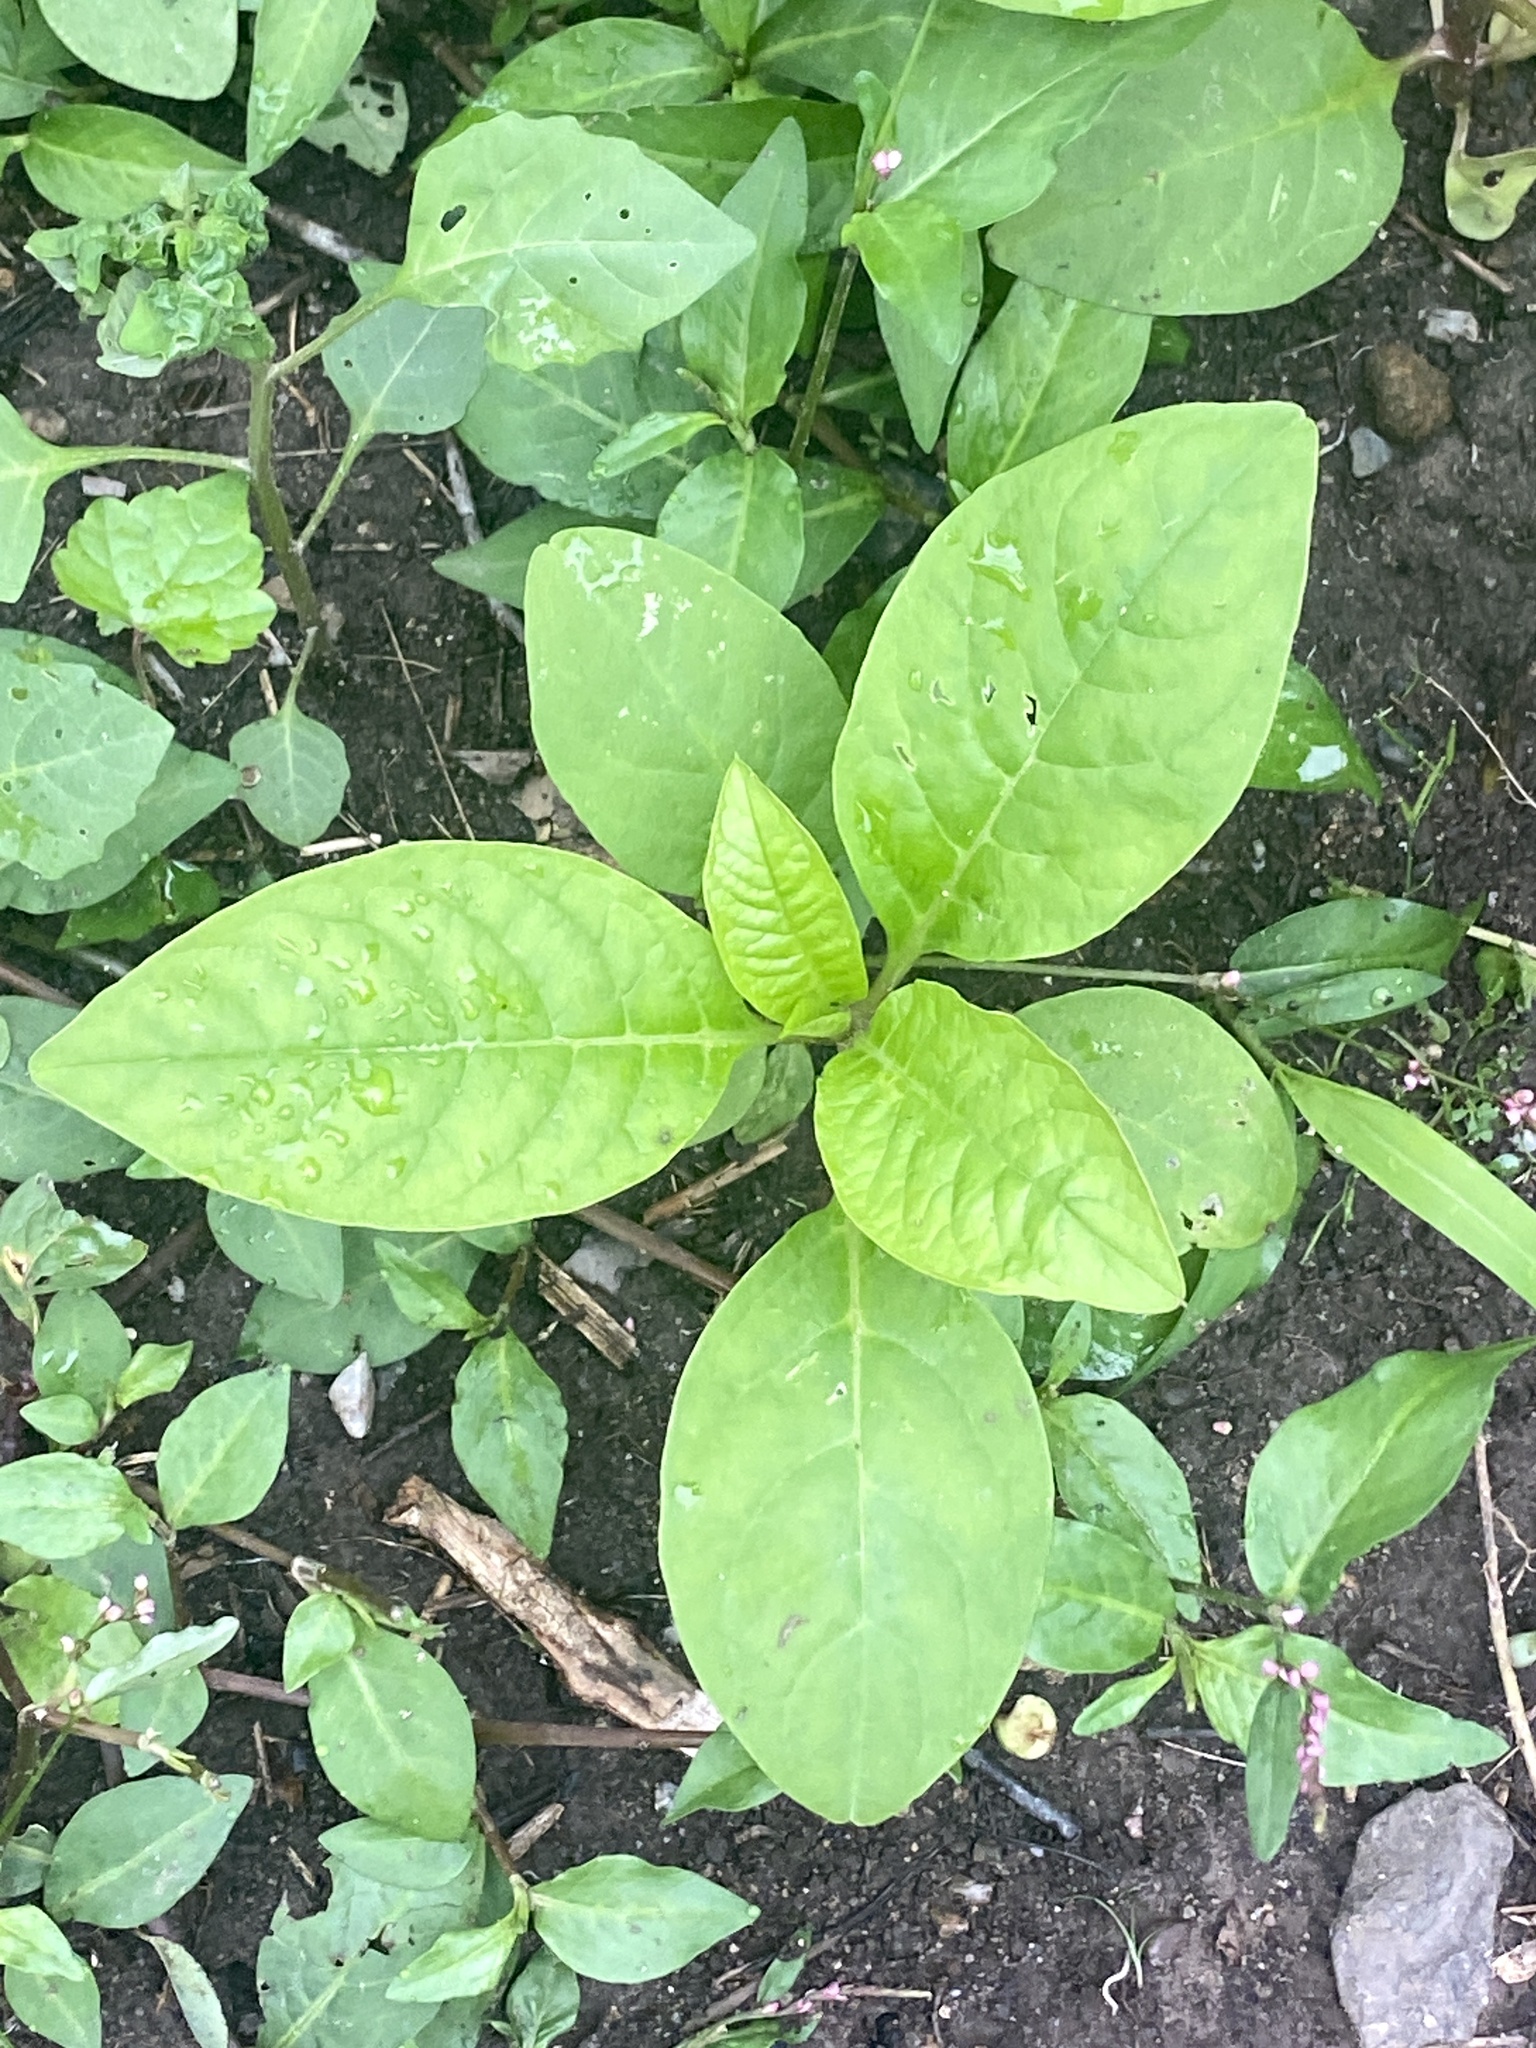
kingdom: Plantae
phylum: Tracheophyta
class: Magnoliopsida
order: Caryophyllales
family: Phytolaccaceae
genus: Phytolacca
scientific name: Phytolacca americana
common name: American pokeweed
